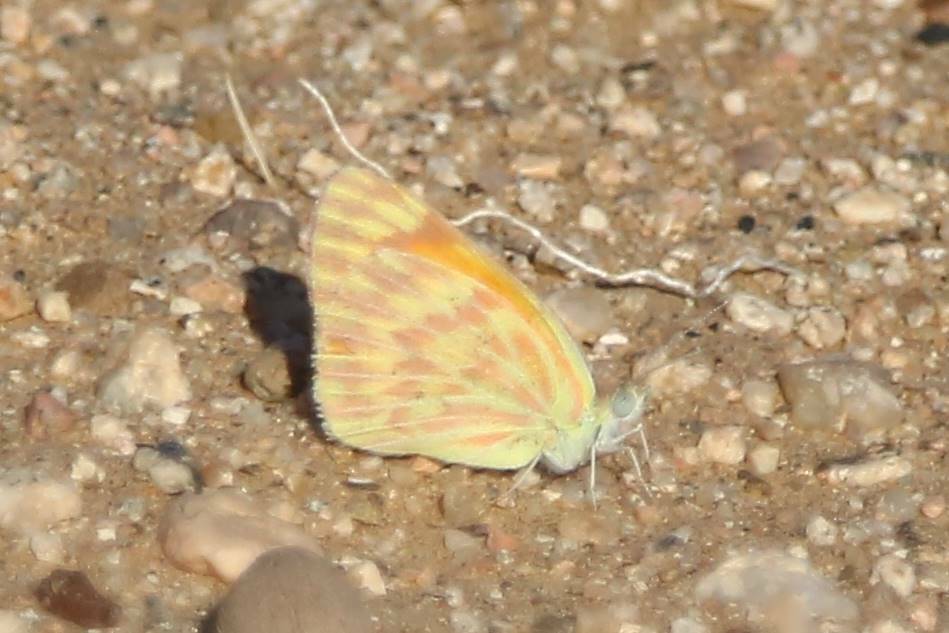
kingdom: Animalia
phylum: Arthropoda
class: Insecta
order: Lepidoptera
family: Pieridae
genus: Colotis
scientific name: Colotis chrysonome
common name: Golden arab
